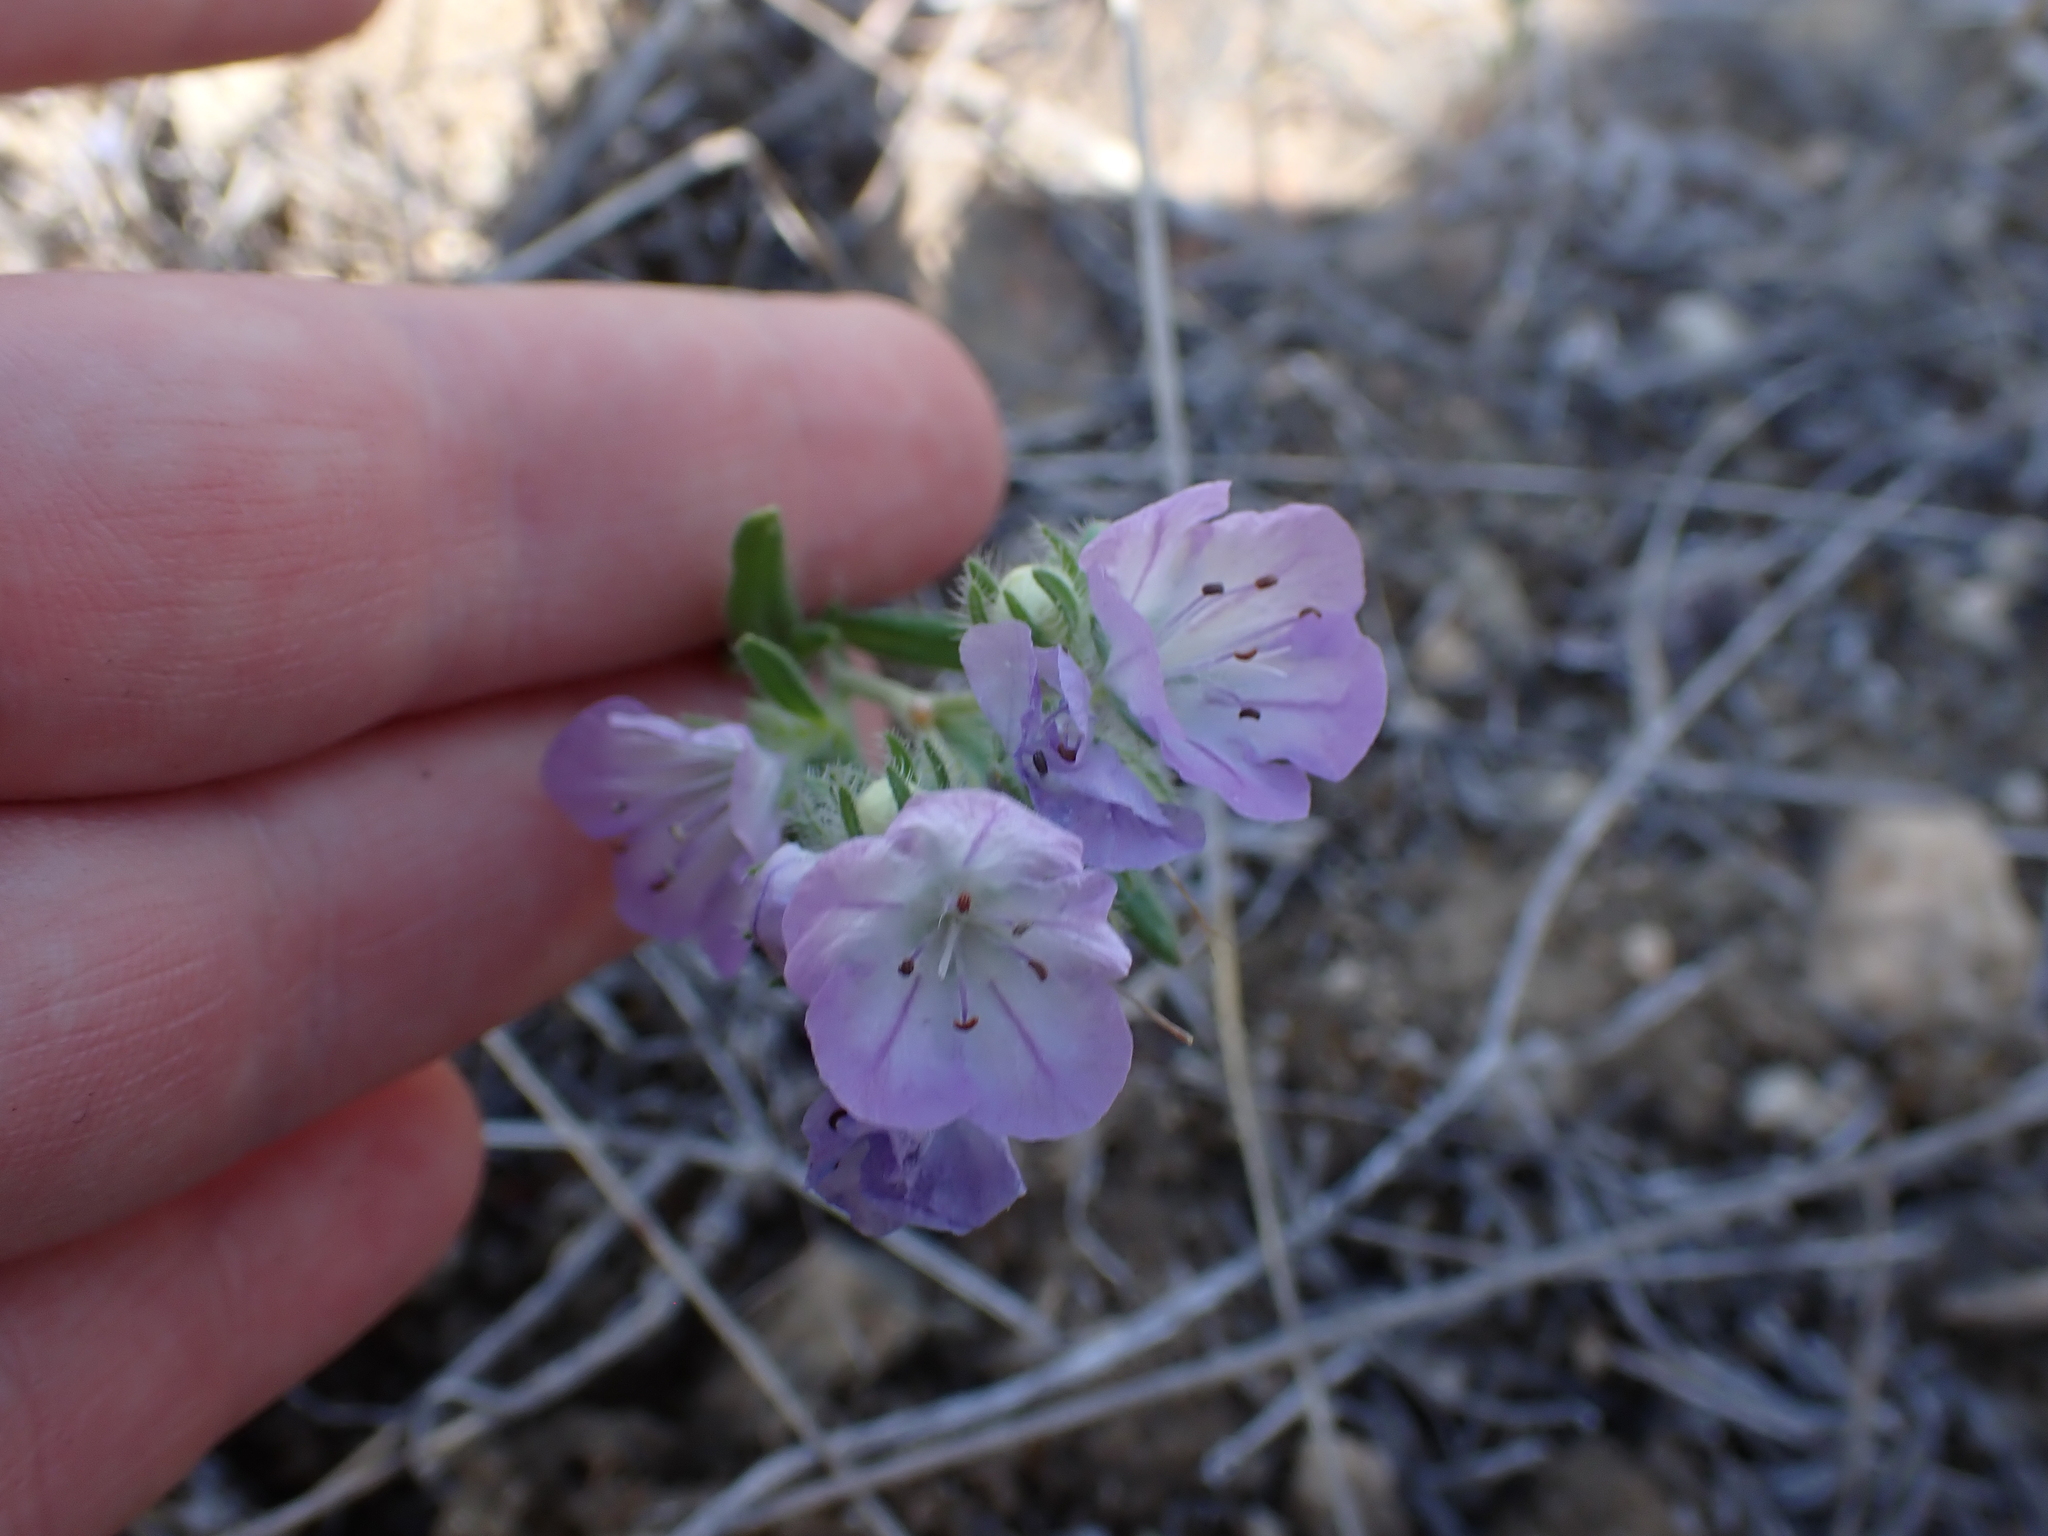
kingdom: Plantae
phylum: Tracheophyta
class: Magnoliopsida
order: Boraginales
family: Hydrophyllaceae
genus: Phacelia
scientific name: Phacelia linearis
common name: Linear-leaved phacelia
